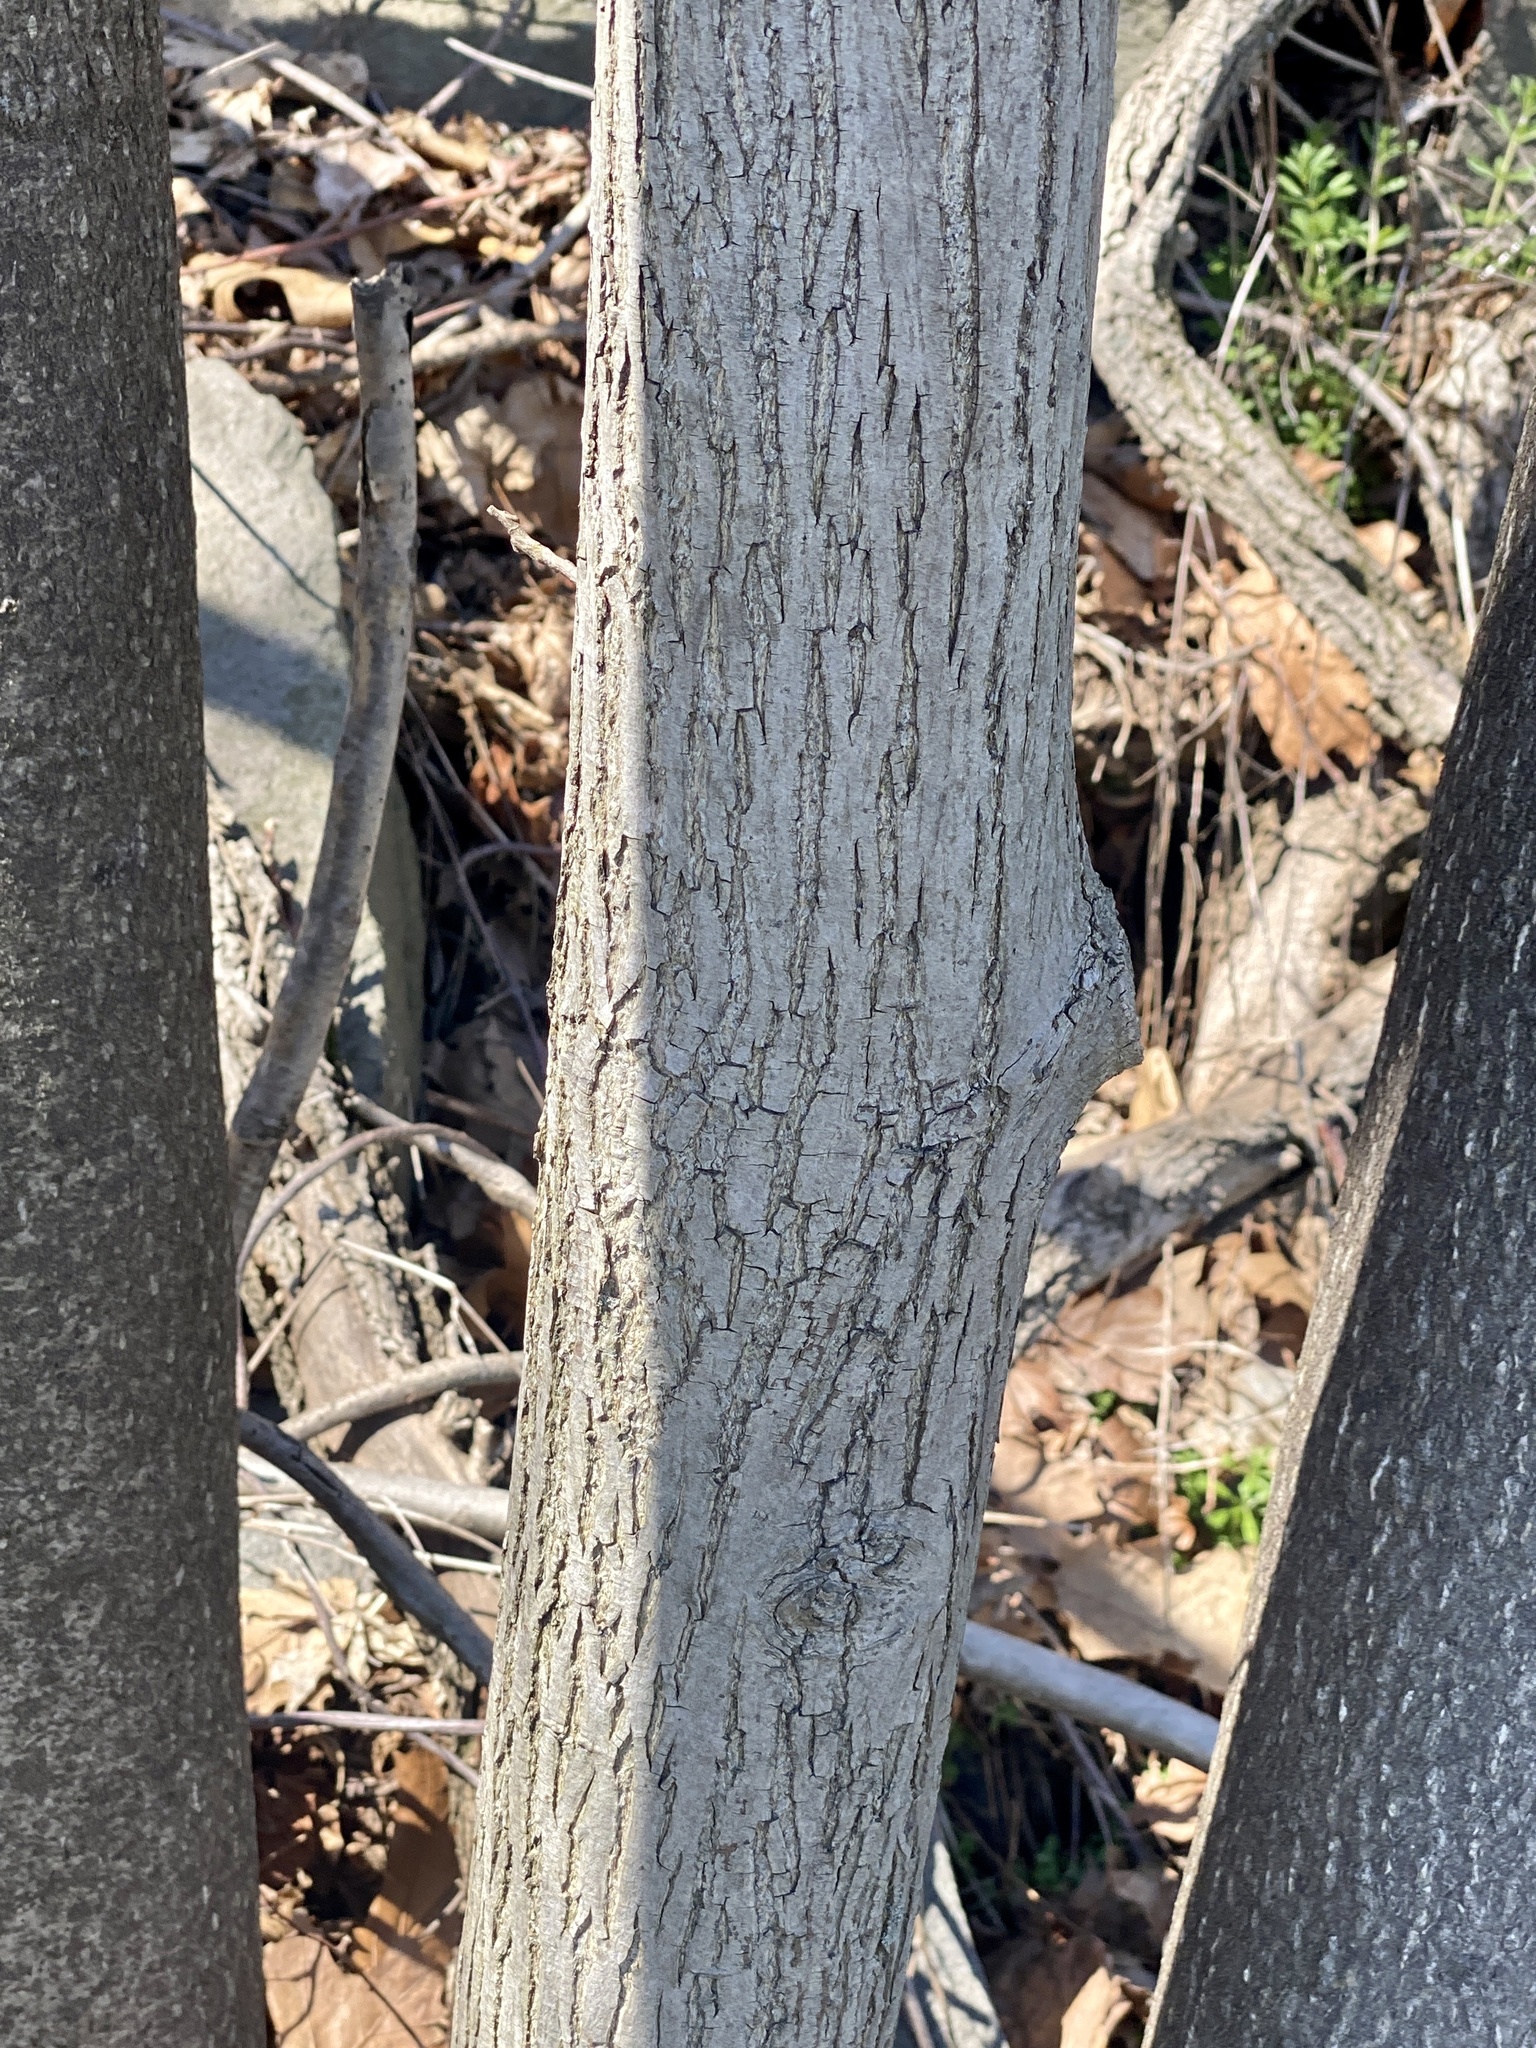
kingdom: Plantae
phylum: Tracheophyta
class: Magnoliopsida
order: Fagales
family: Juglandaceae
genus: Carya
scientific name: Carya cordiformis
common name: Bitternut hickory
